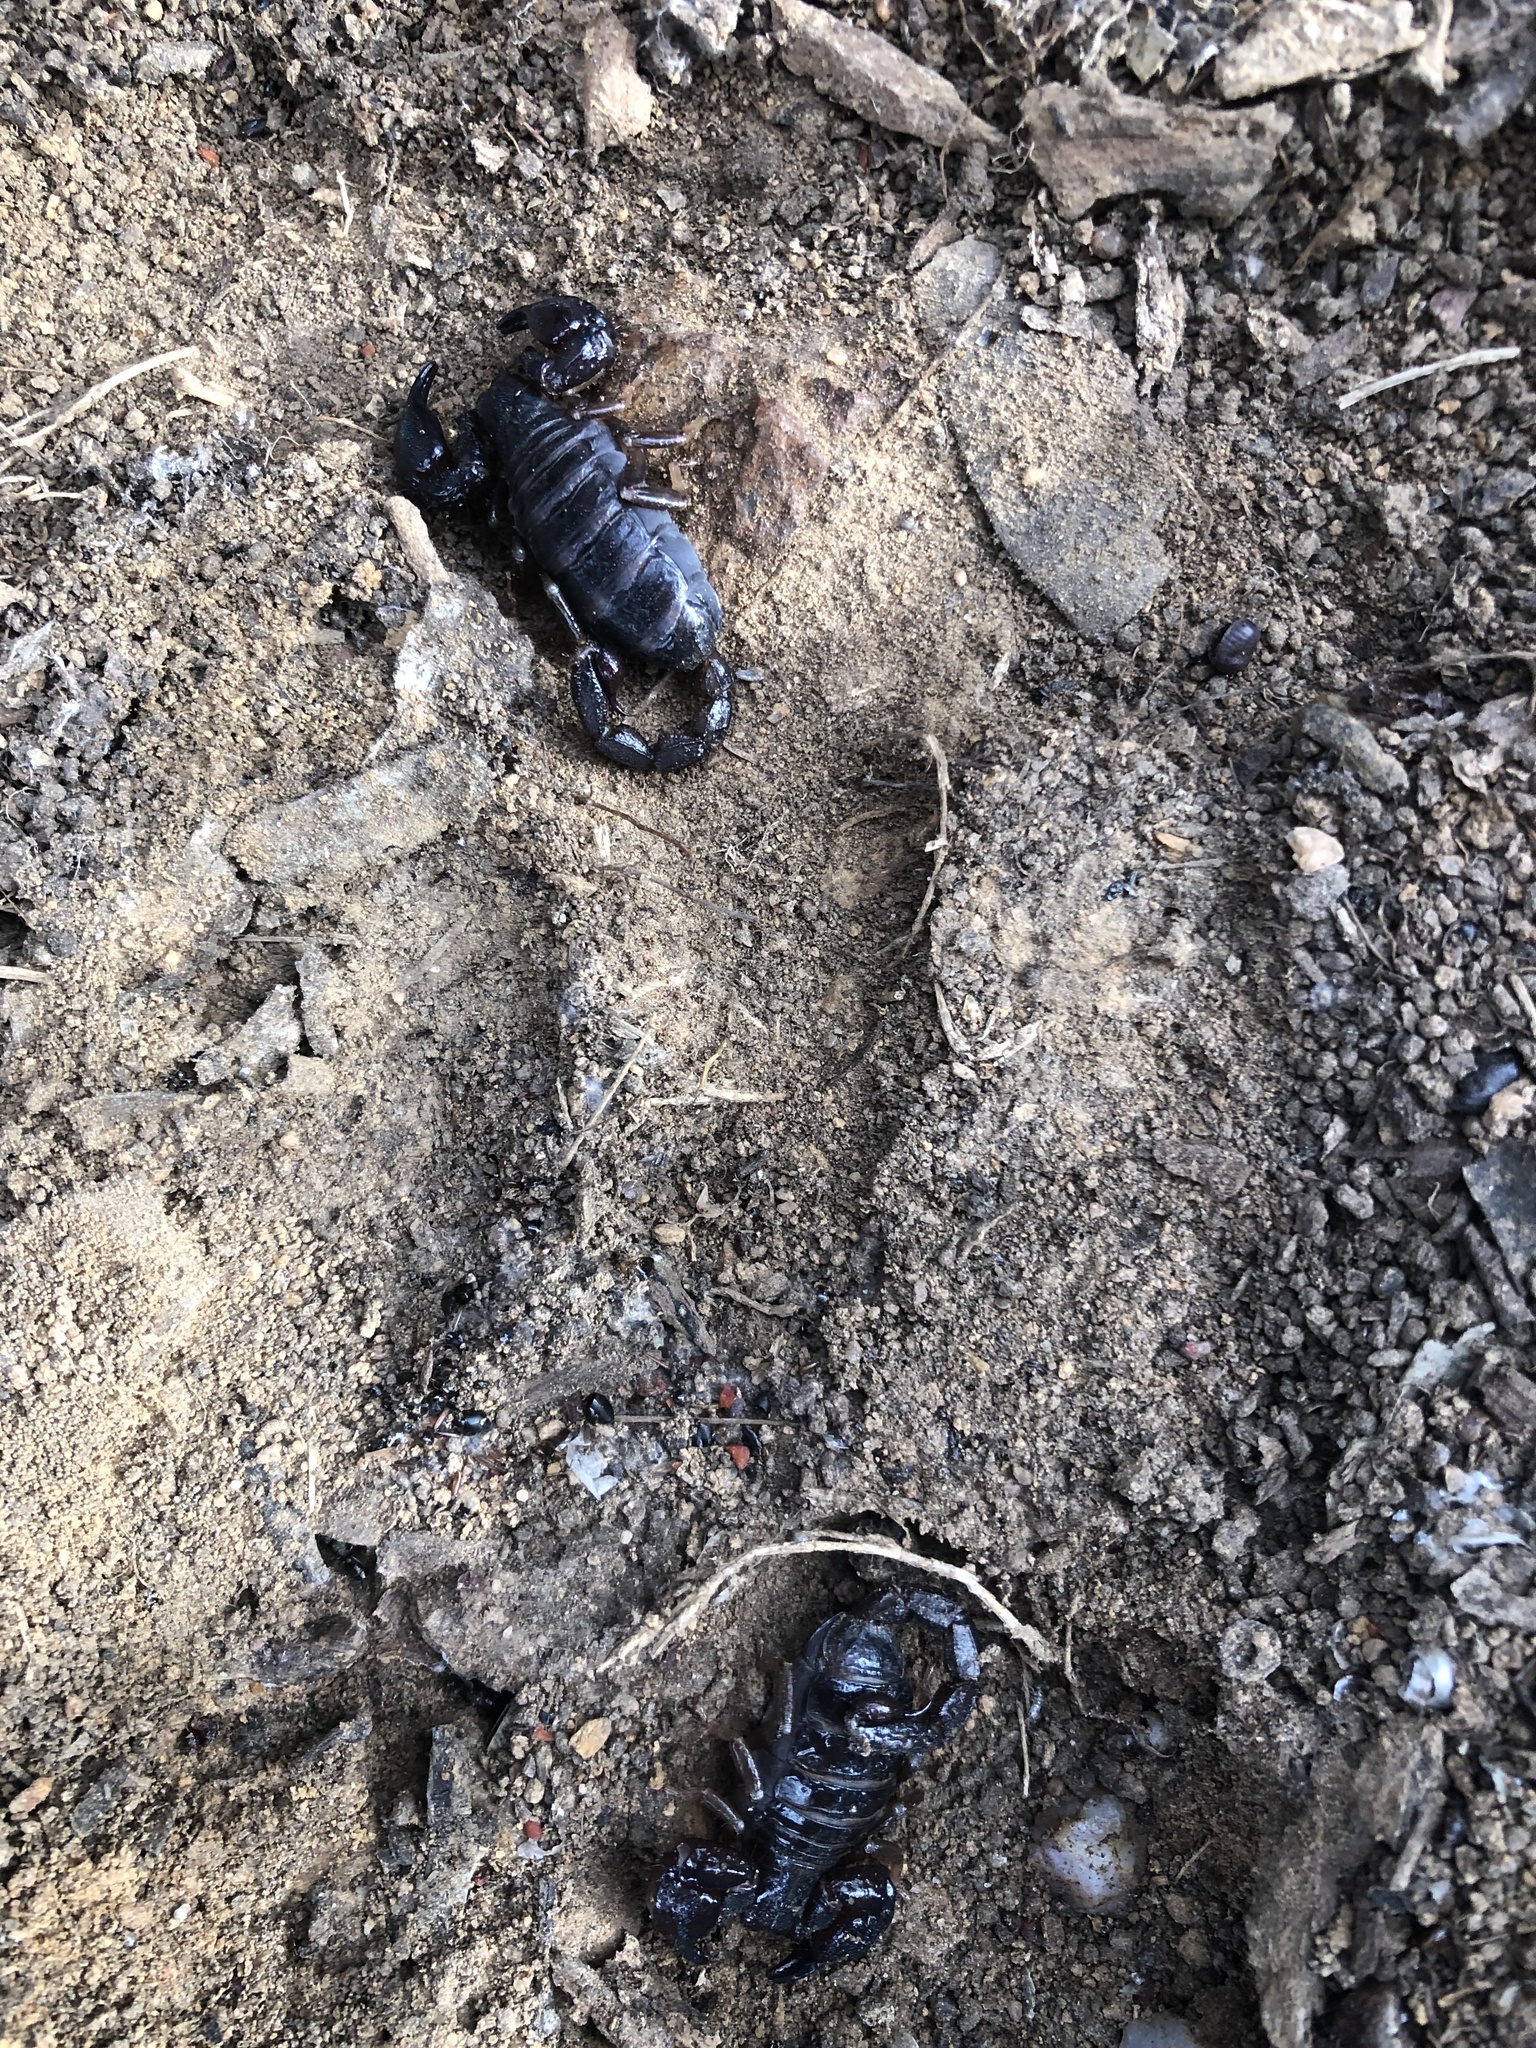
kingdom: Animalia
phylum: Arthropoda
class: Arachnida
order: Scorpiones
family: Scorpionidae
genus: Urodacus
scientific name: Urodacus manicatus
